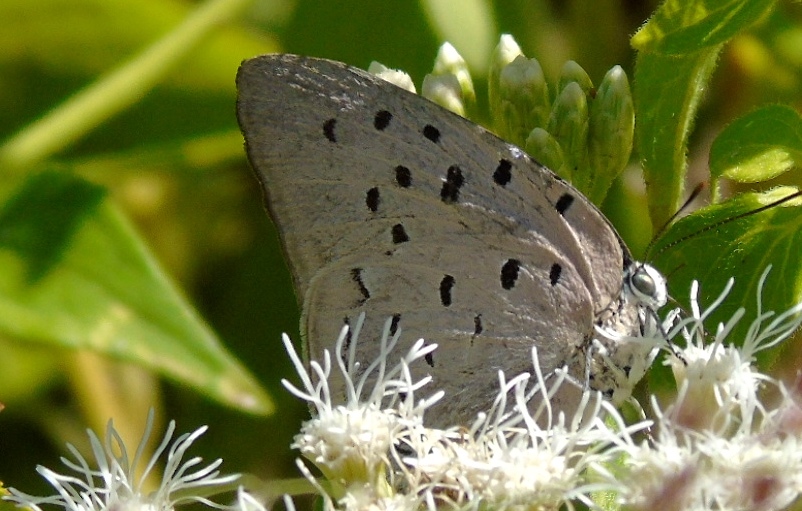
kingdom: Animalia
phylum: Arthropoda
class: Insecta
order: Lepidoptera
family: Lycaenidae
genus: Pseudolycaena
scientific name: Pseudolycaena damo
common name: Sky-blue hairstreak
